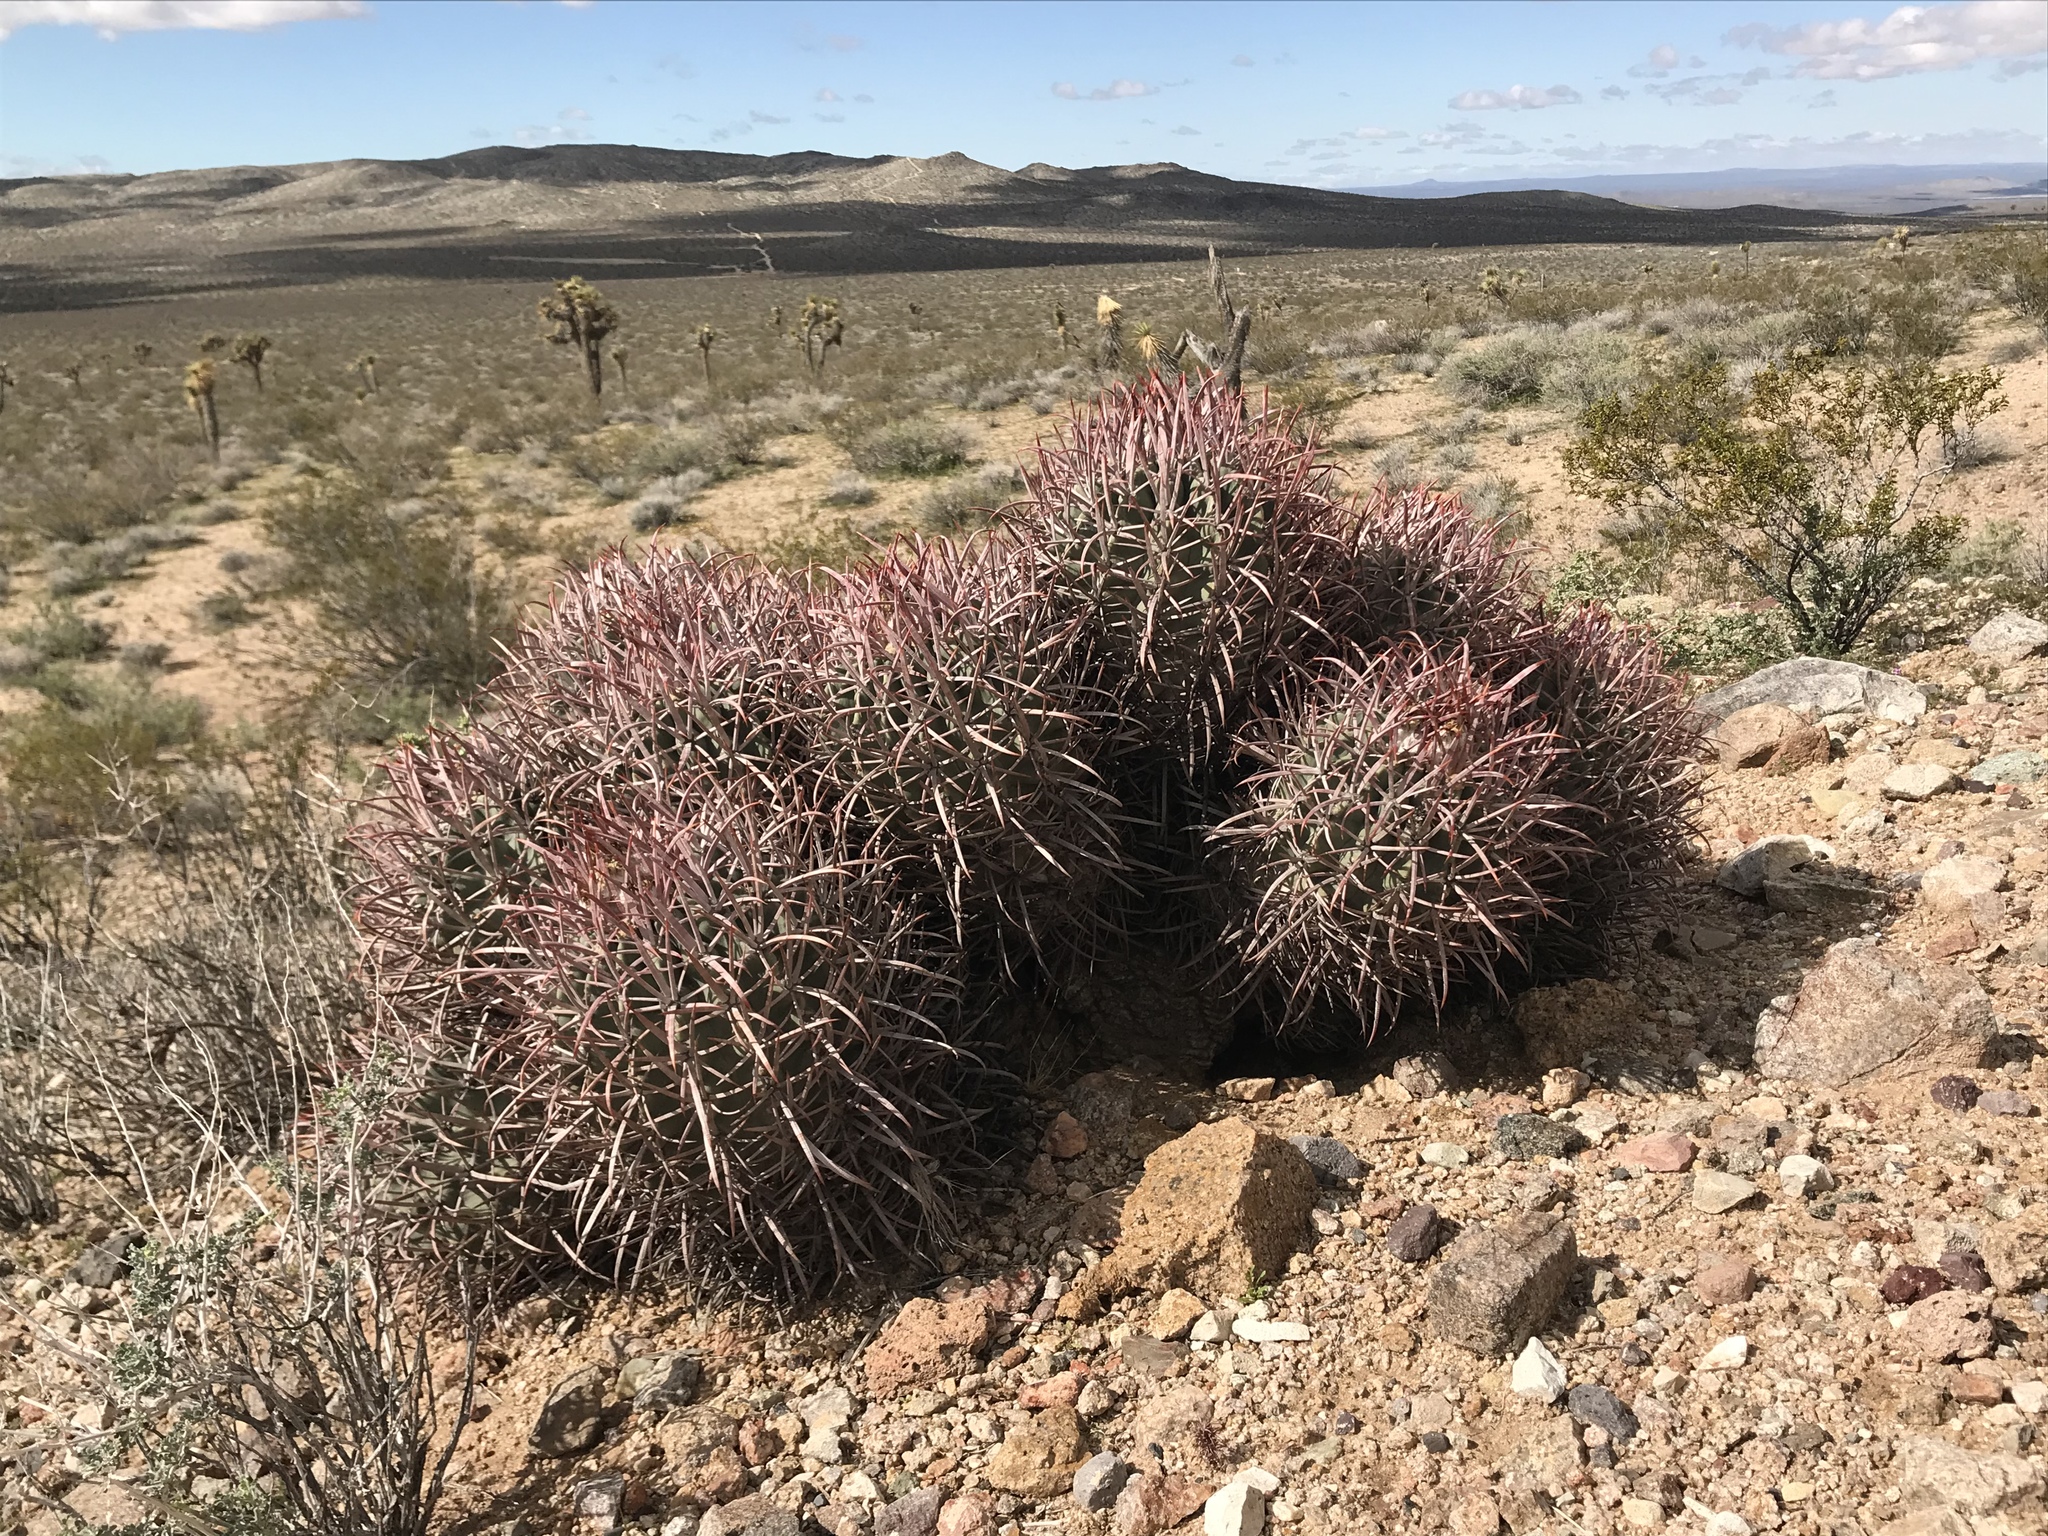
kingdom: Plantae
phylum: Tracheophyta
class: Magnoliopsida
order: Caryophyllales
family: Cactaceae
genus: Echinocactus
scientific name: Echinocactus polycephalus
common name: Cottontop cactus
